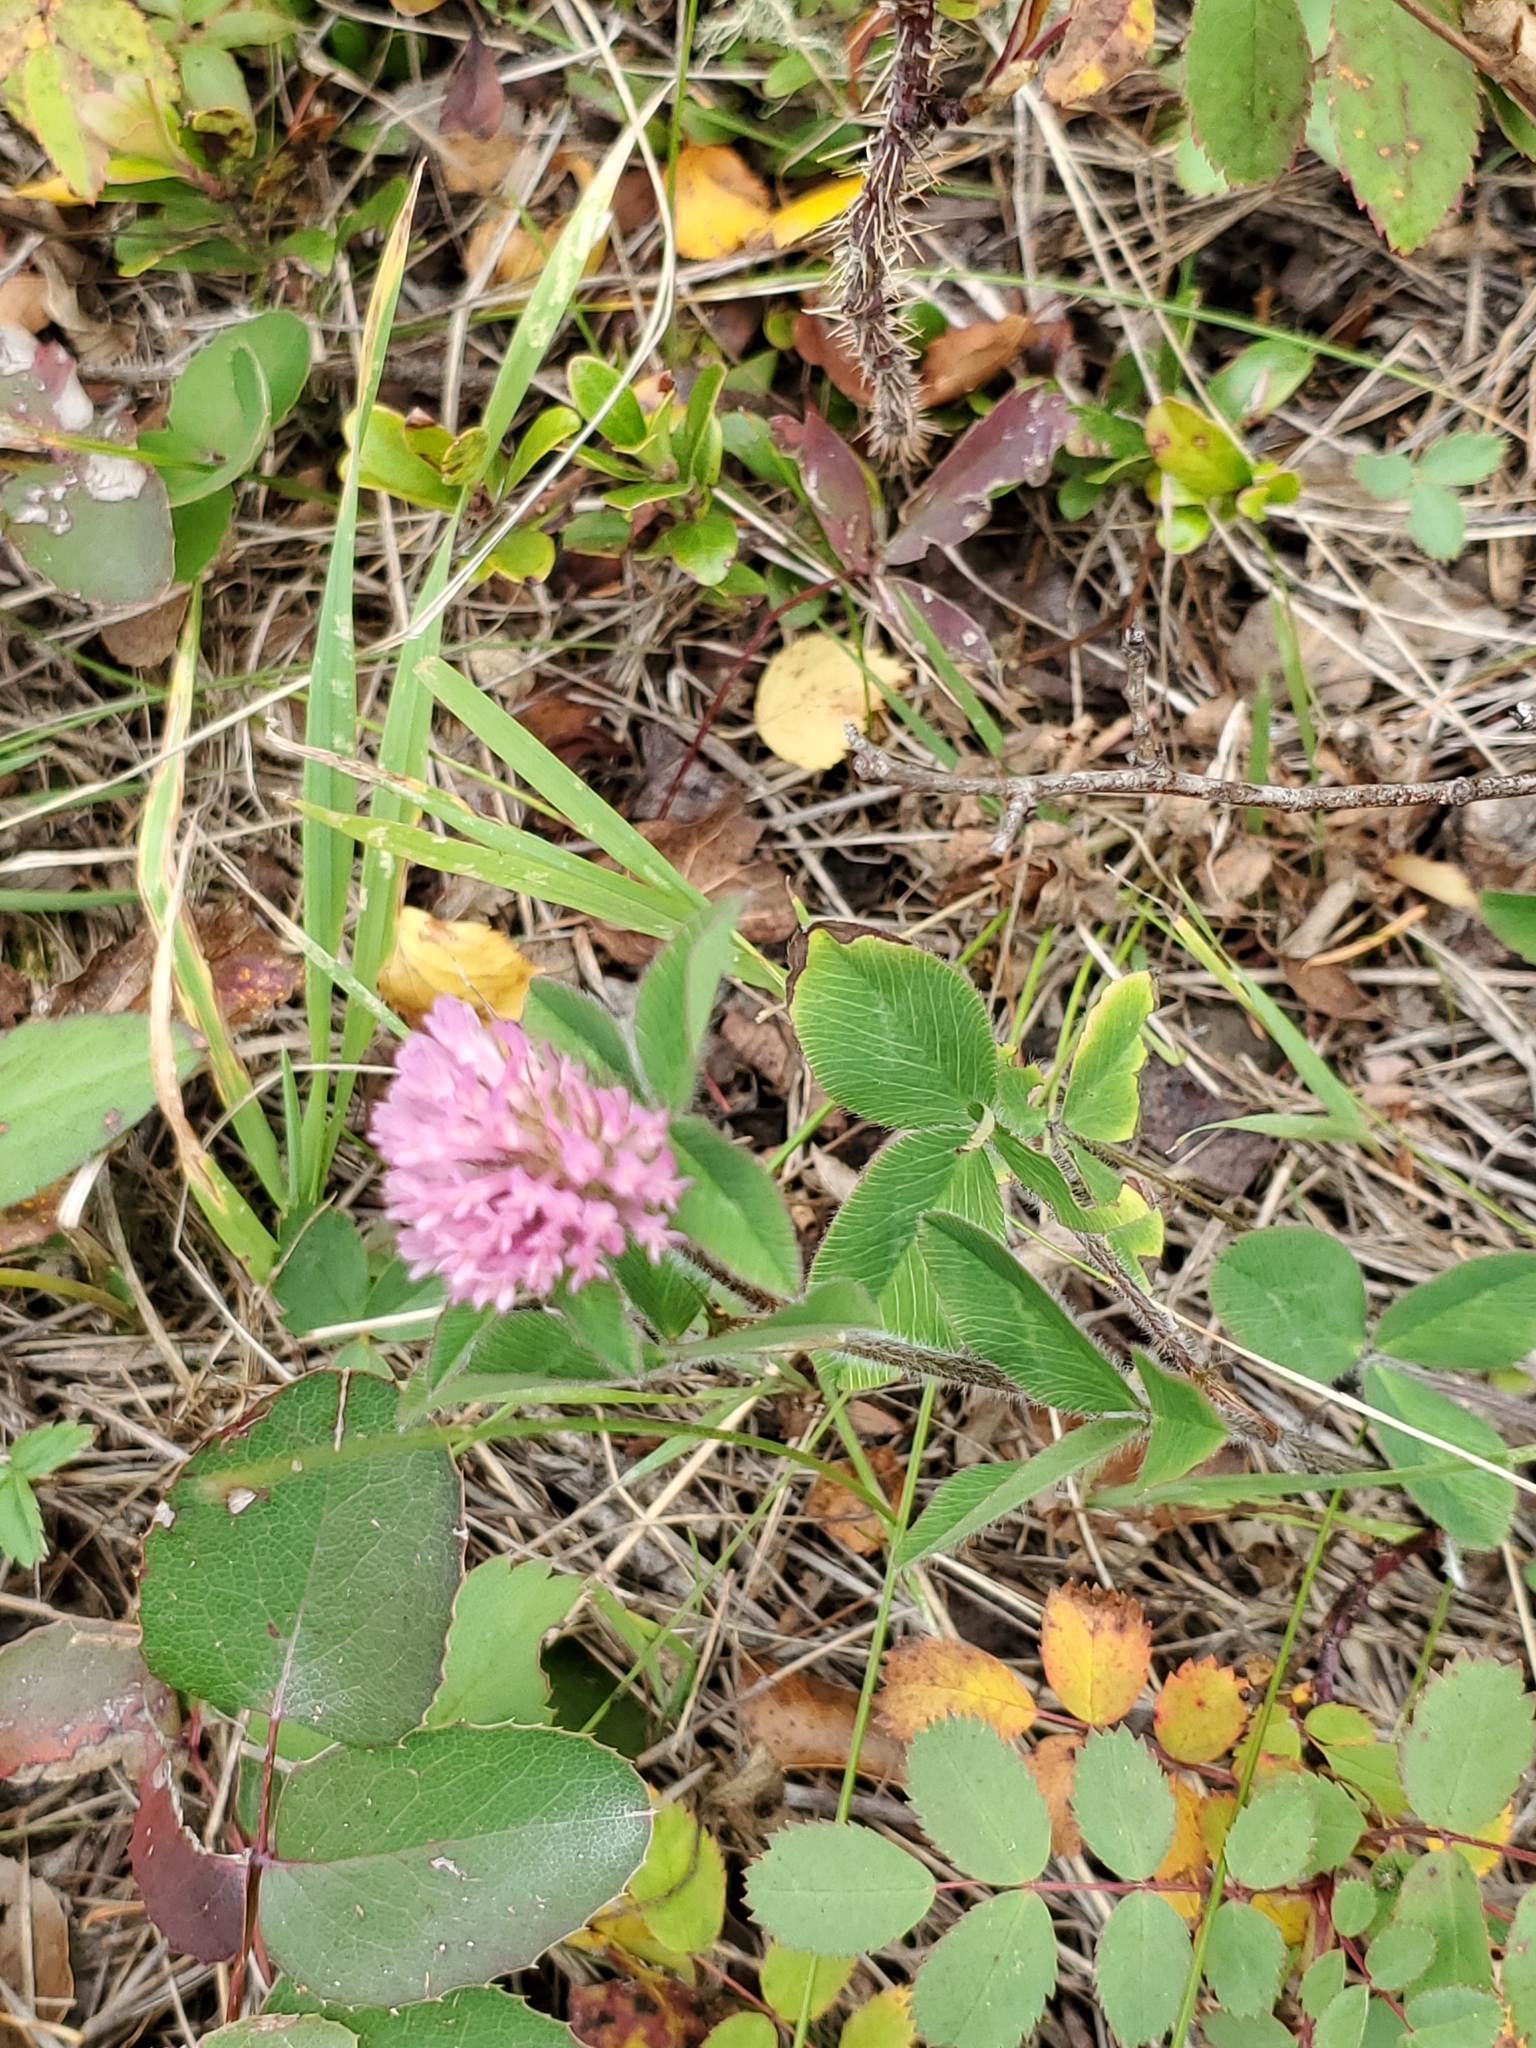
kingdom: Plantae
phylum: Tracheophyta
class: Magnoliopsida
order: Fabales
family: Fabaceae
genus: Trifolium
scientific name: Trifolium pratense
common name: Red clover
